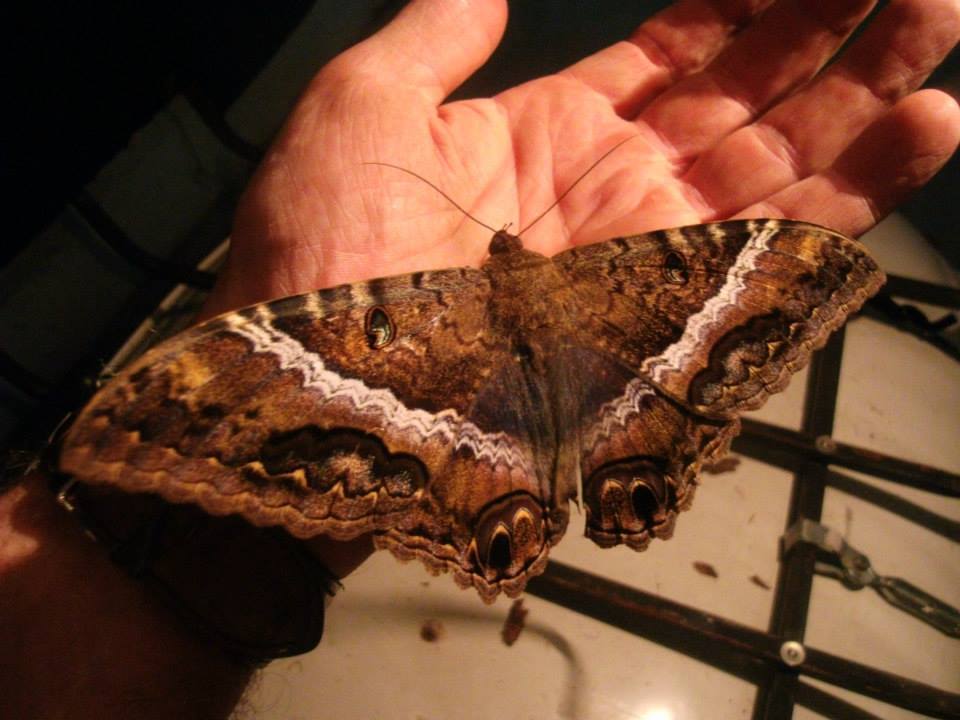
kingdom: Animalia
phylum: Arthropoda
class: Insecta
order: Lepidoptera
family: Erebidae
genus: Ascalapha
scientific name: Ascalapha odorata
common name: Black witch
